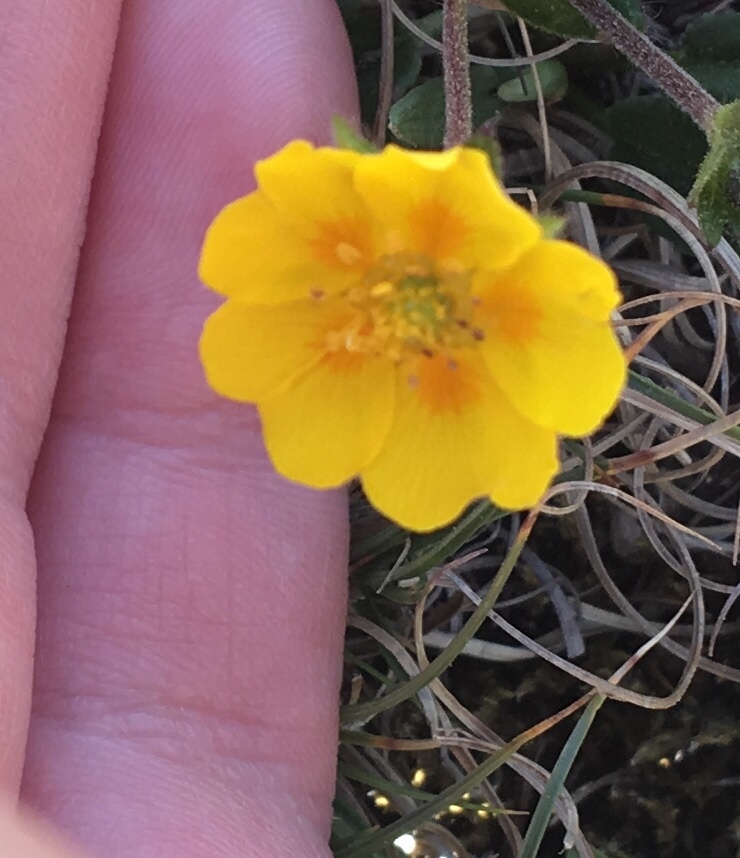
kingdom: Plantae
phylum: Tracheophyta
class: Magnoliopsida
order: Rosales
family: Rosaceae
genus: Potentilla
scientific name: Potentilla crantzii
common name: Alpine cinquefoil
